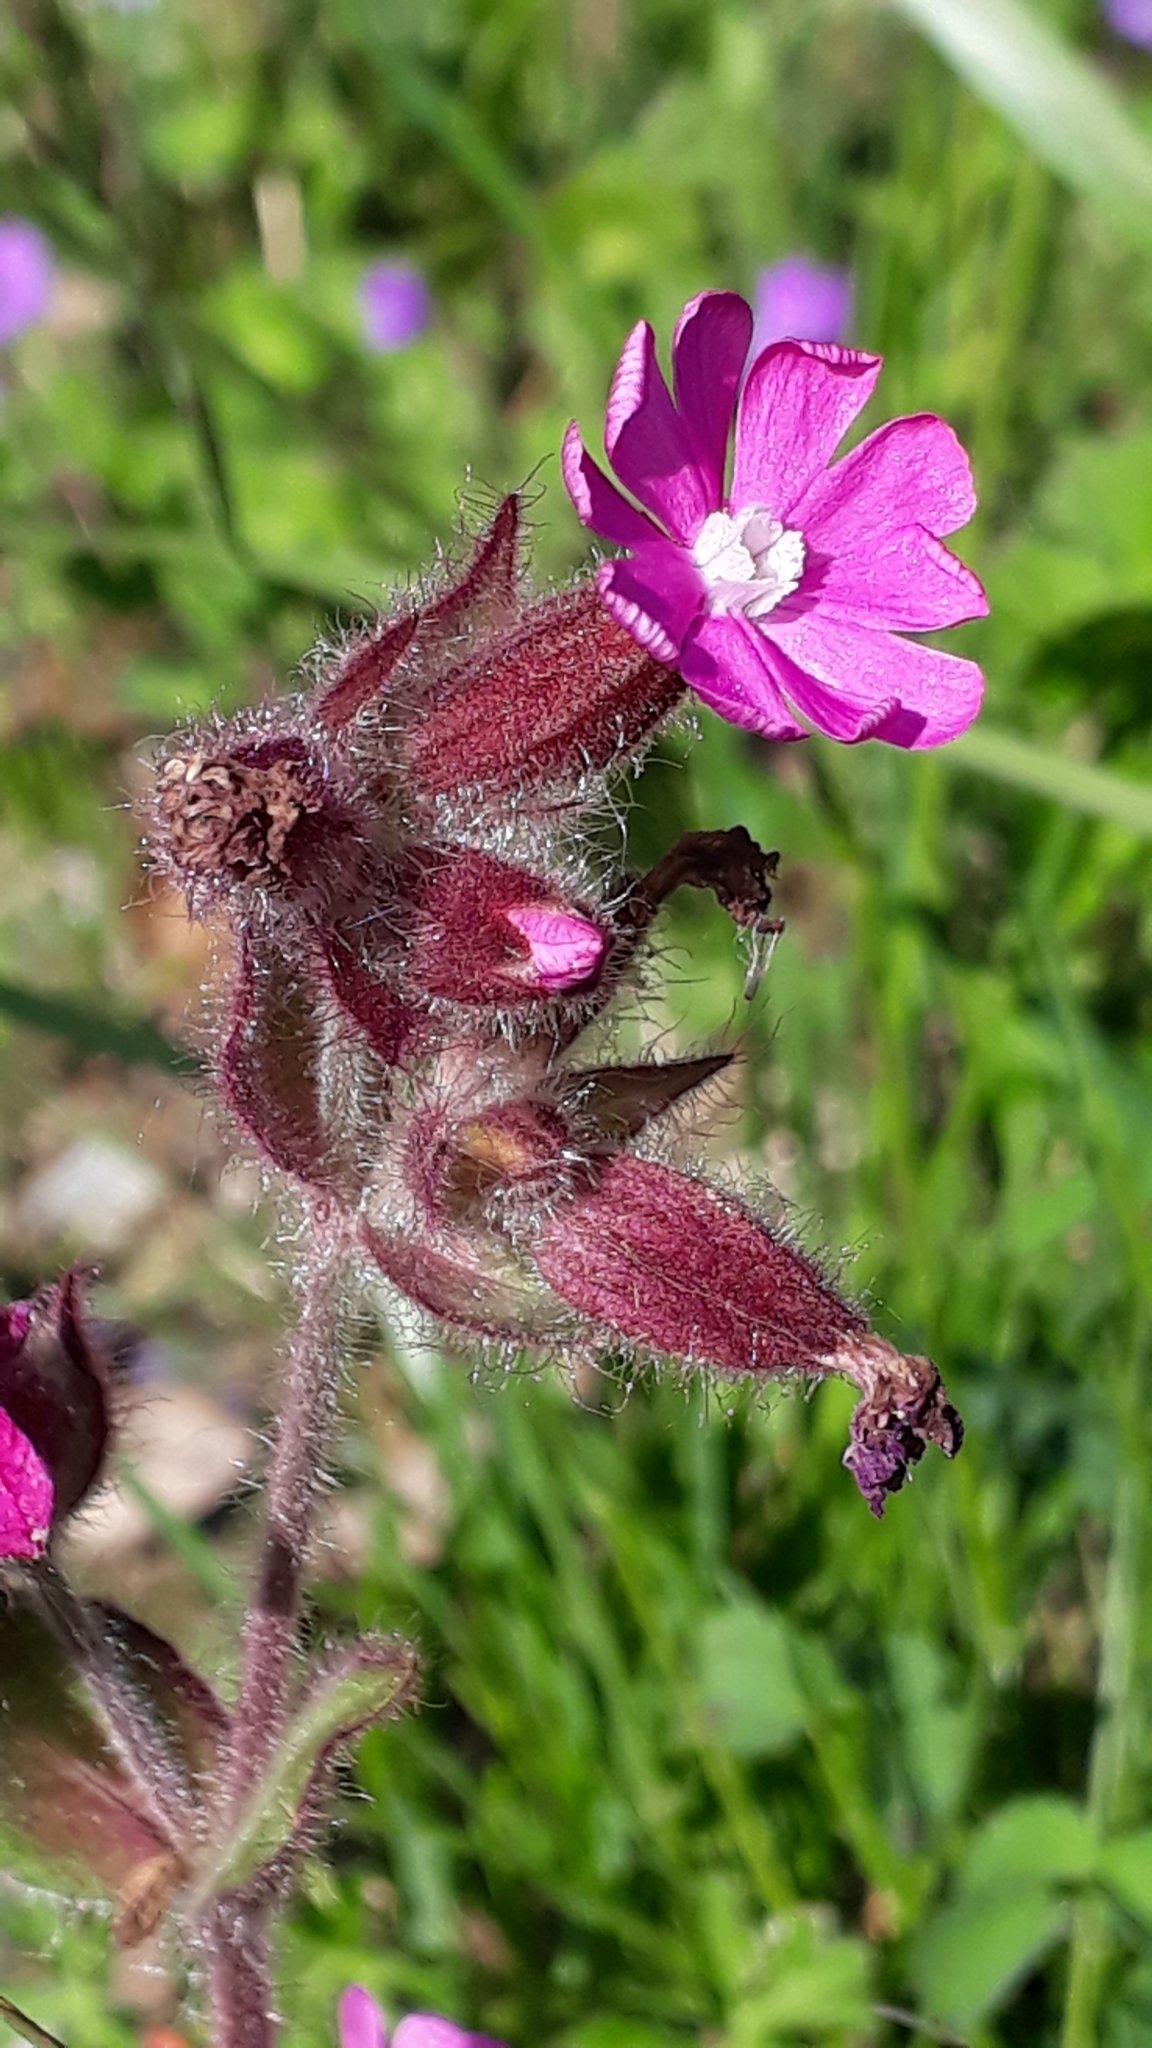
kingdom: Plantae
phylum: Tracheophyta
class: Magnoliopsida
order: Caryophyllales
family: Caryophyllaceae
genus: Silene
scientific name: Silene dioica
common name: Red campion
